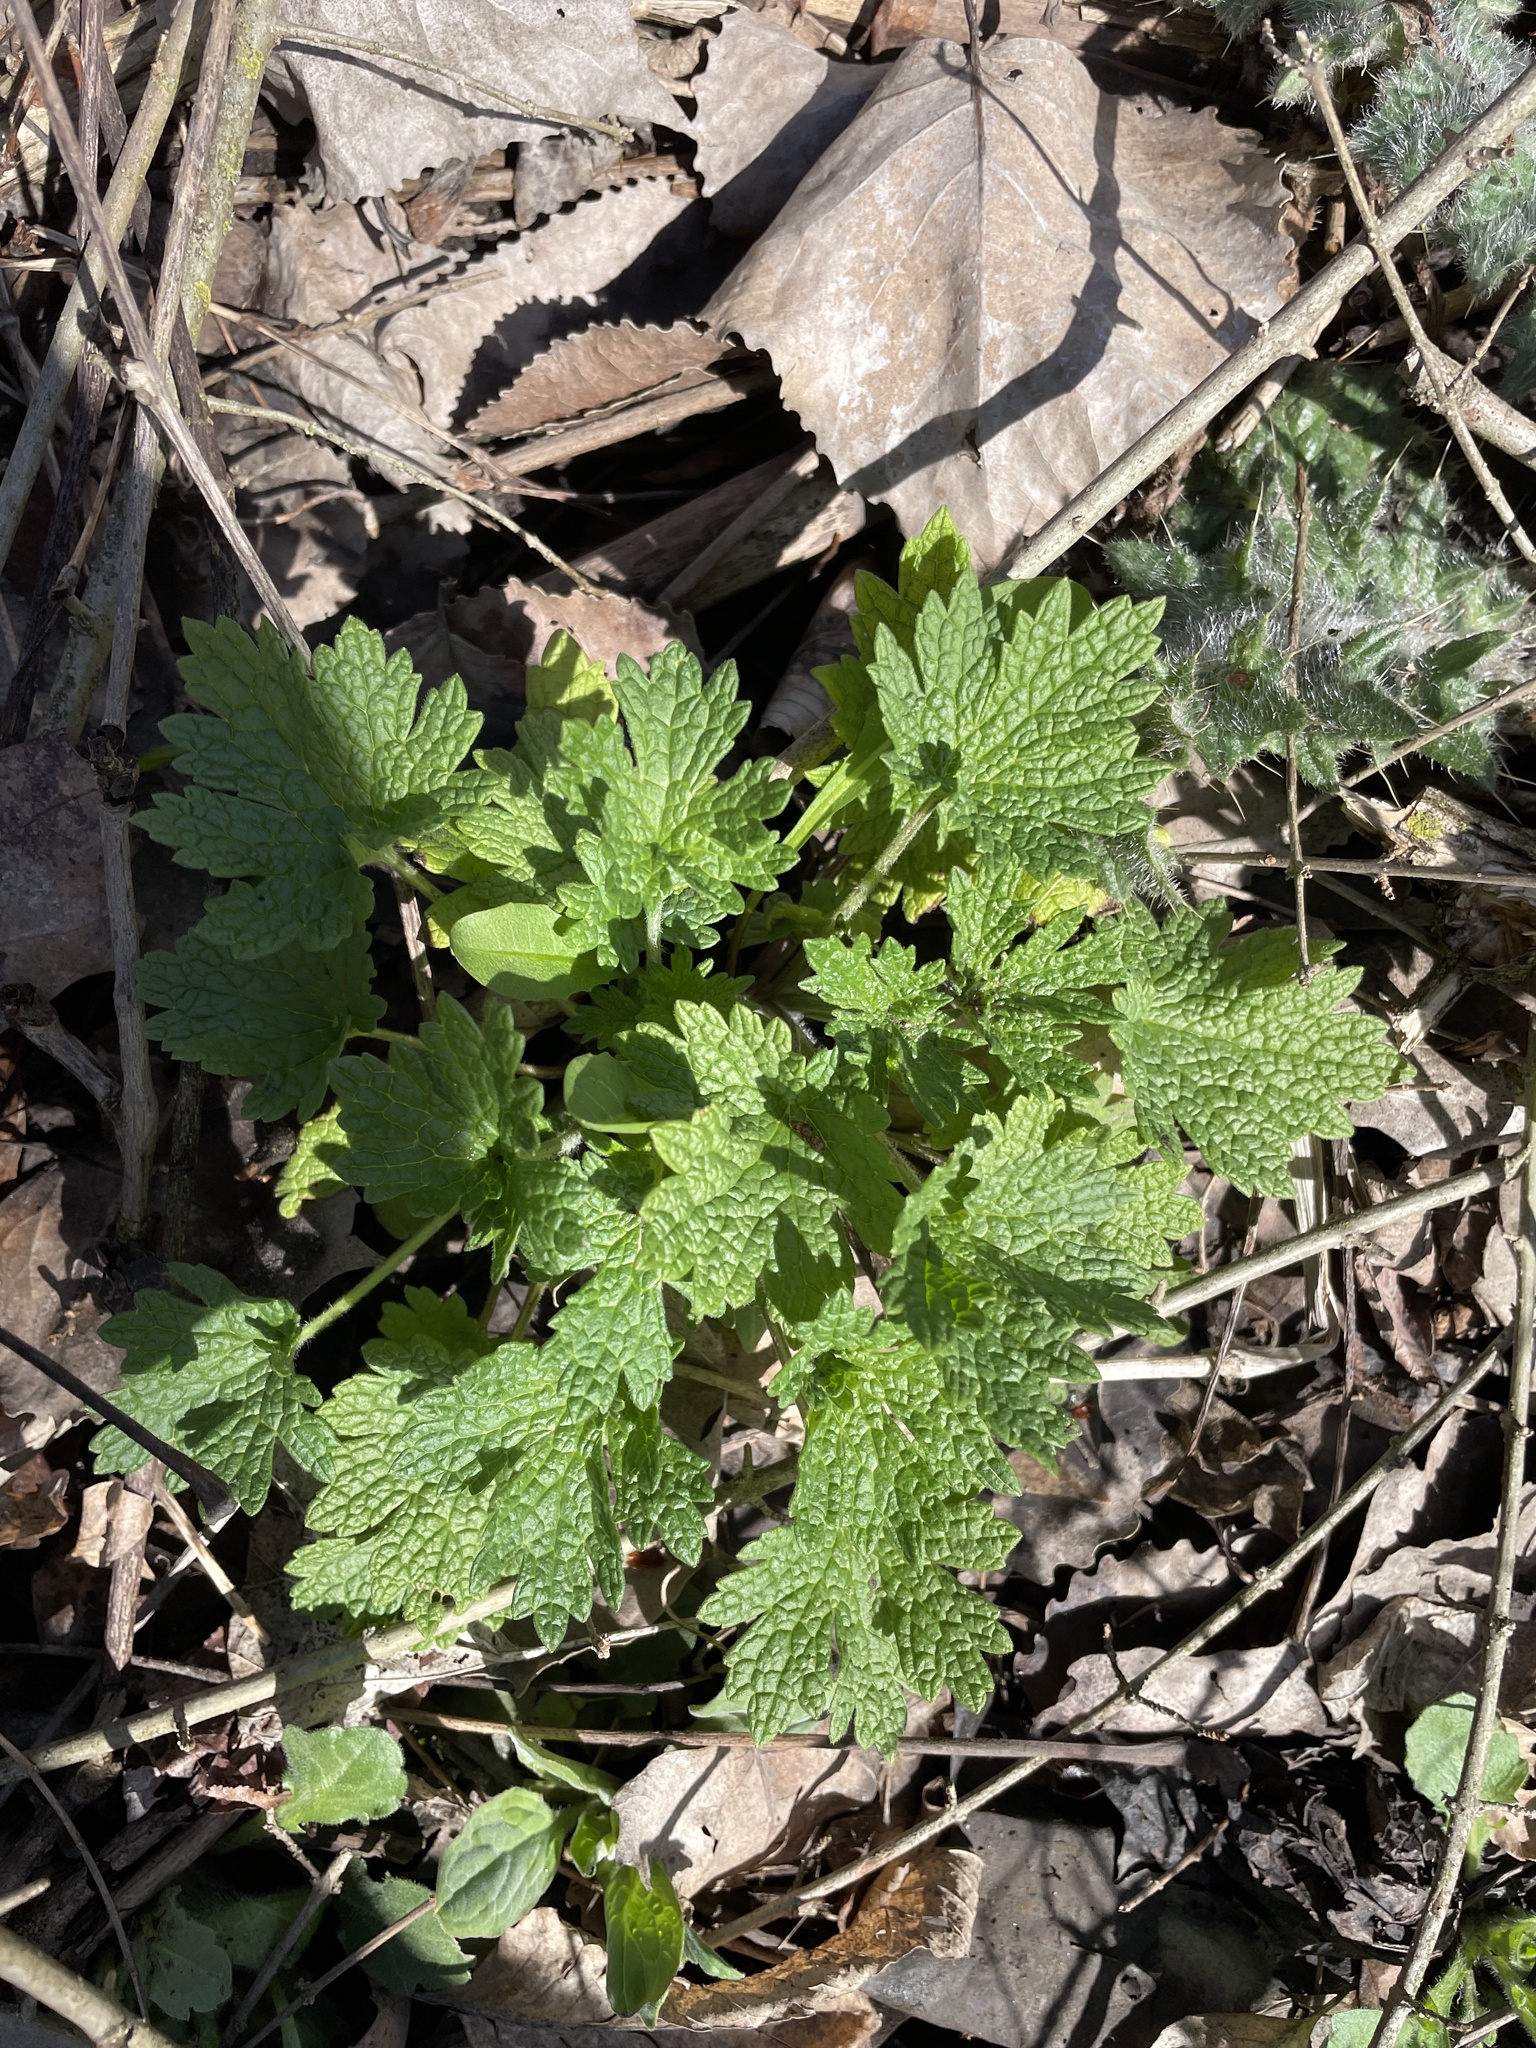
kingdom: Plantae
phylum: Tracheophyta
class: Magnoliopsida
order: Lamiales
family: Lamiaceae
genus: Leonurus
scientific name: Leonurus cardiaca
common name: Motherwort
